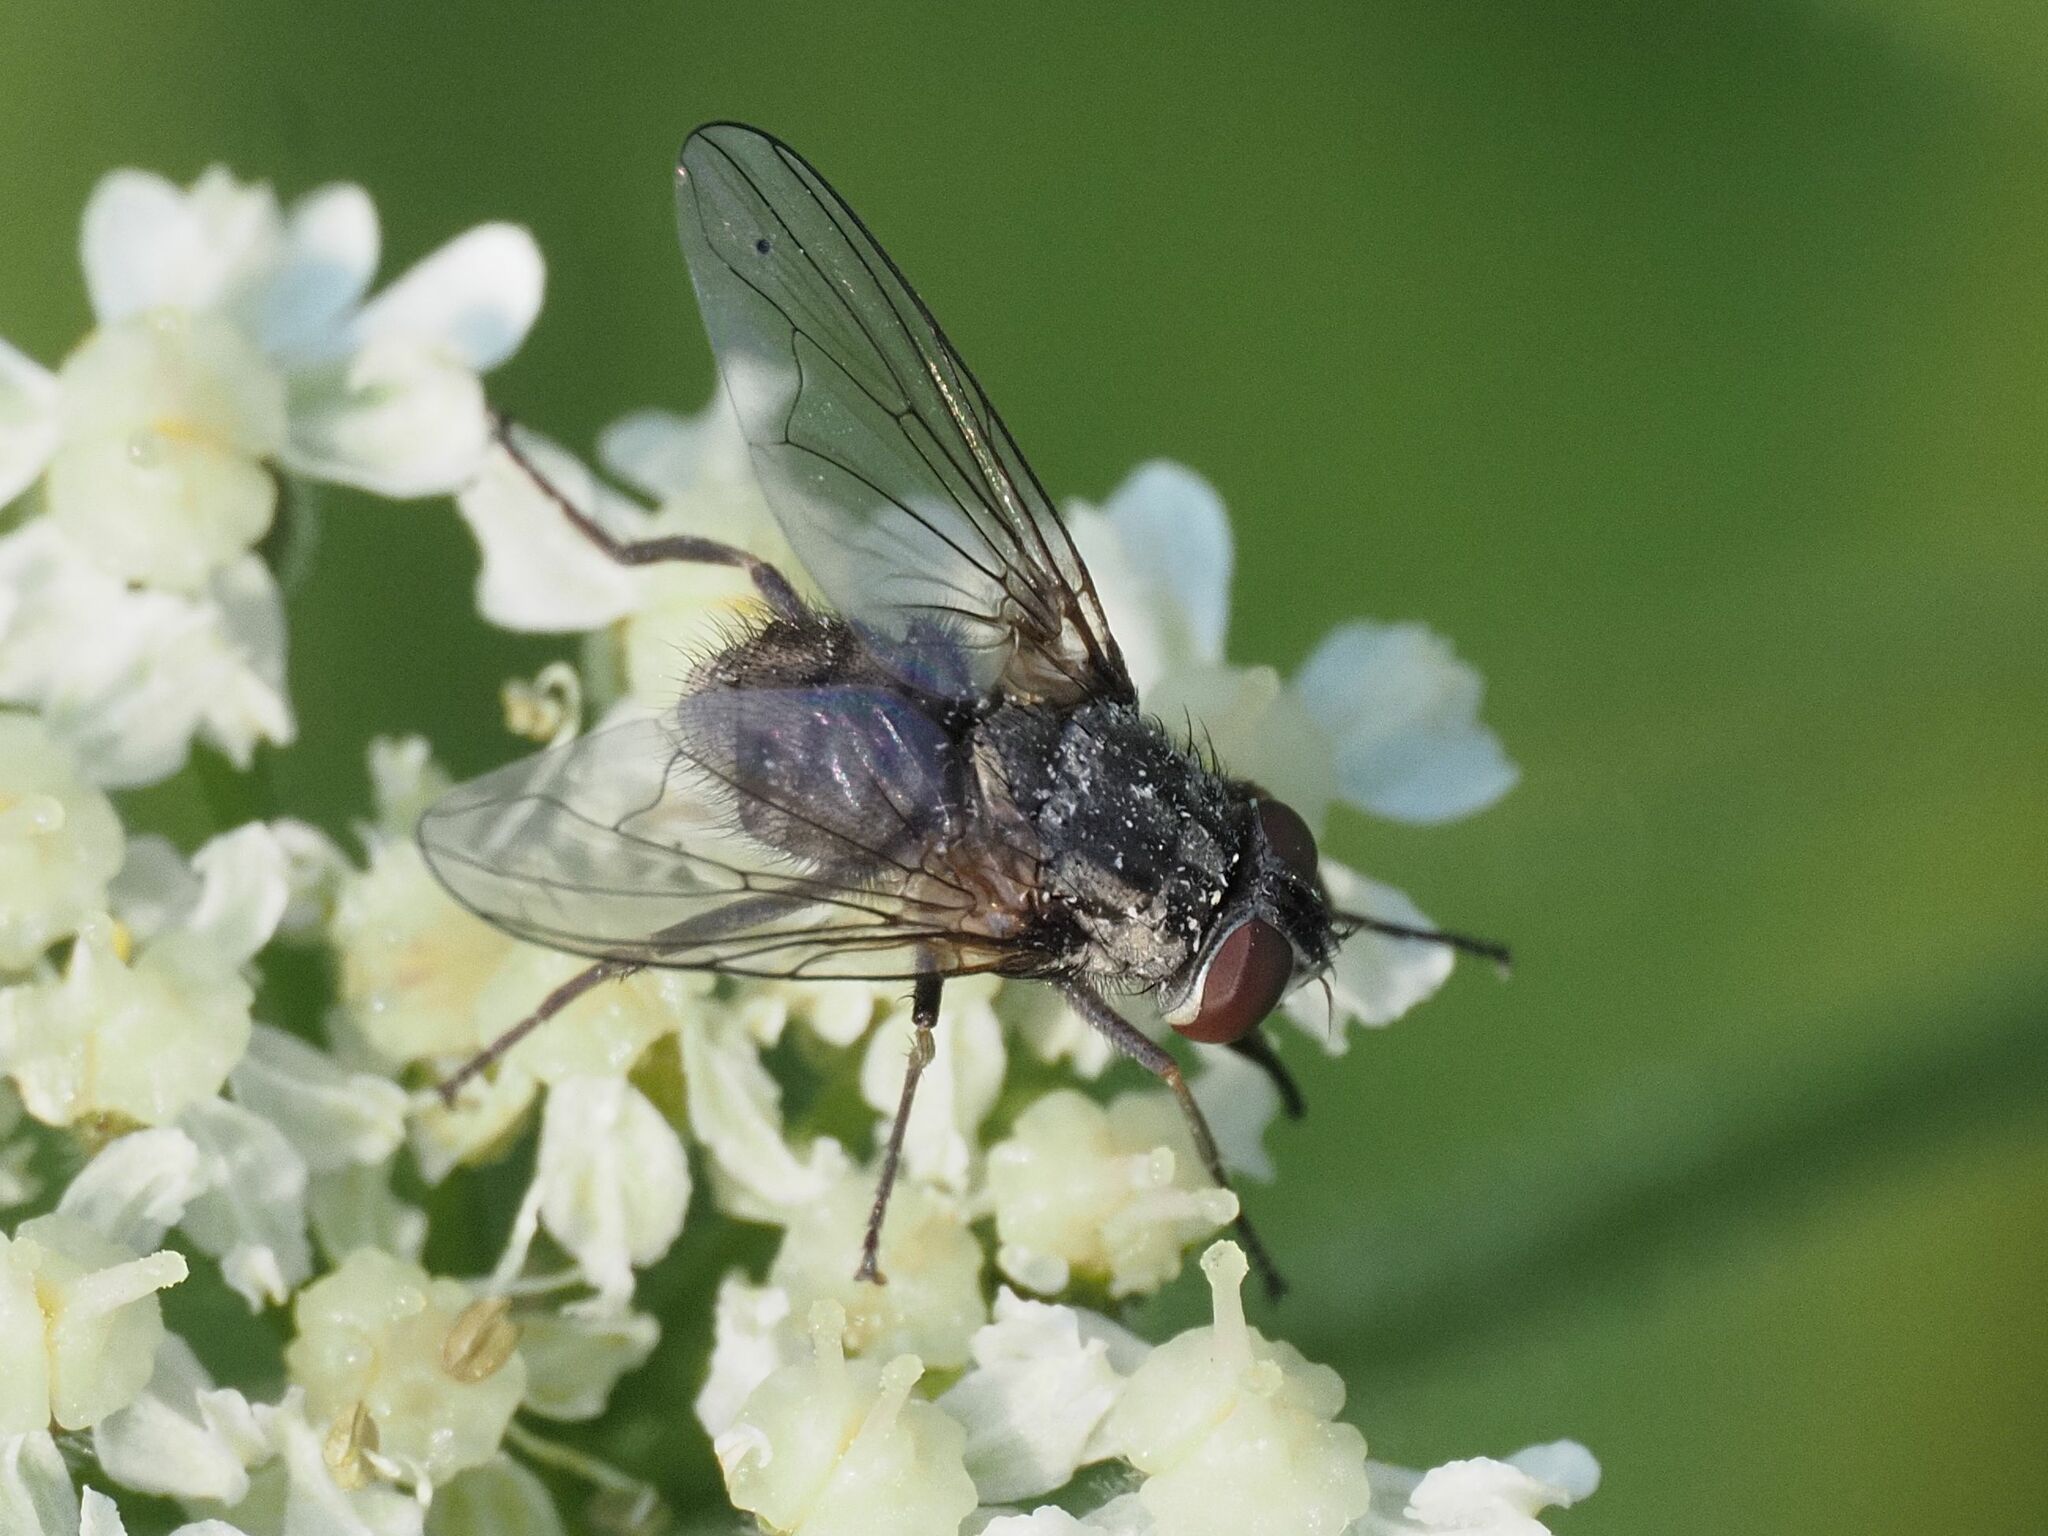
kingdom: Animalia
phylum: Arthropoda
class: Insecta
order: Diptera
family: Muscidae
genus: Stomoxys
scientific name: Stomoxys calcitrans
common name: Stable fly
